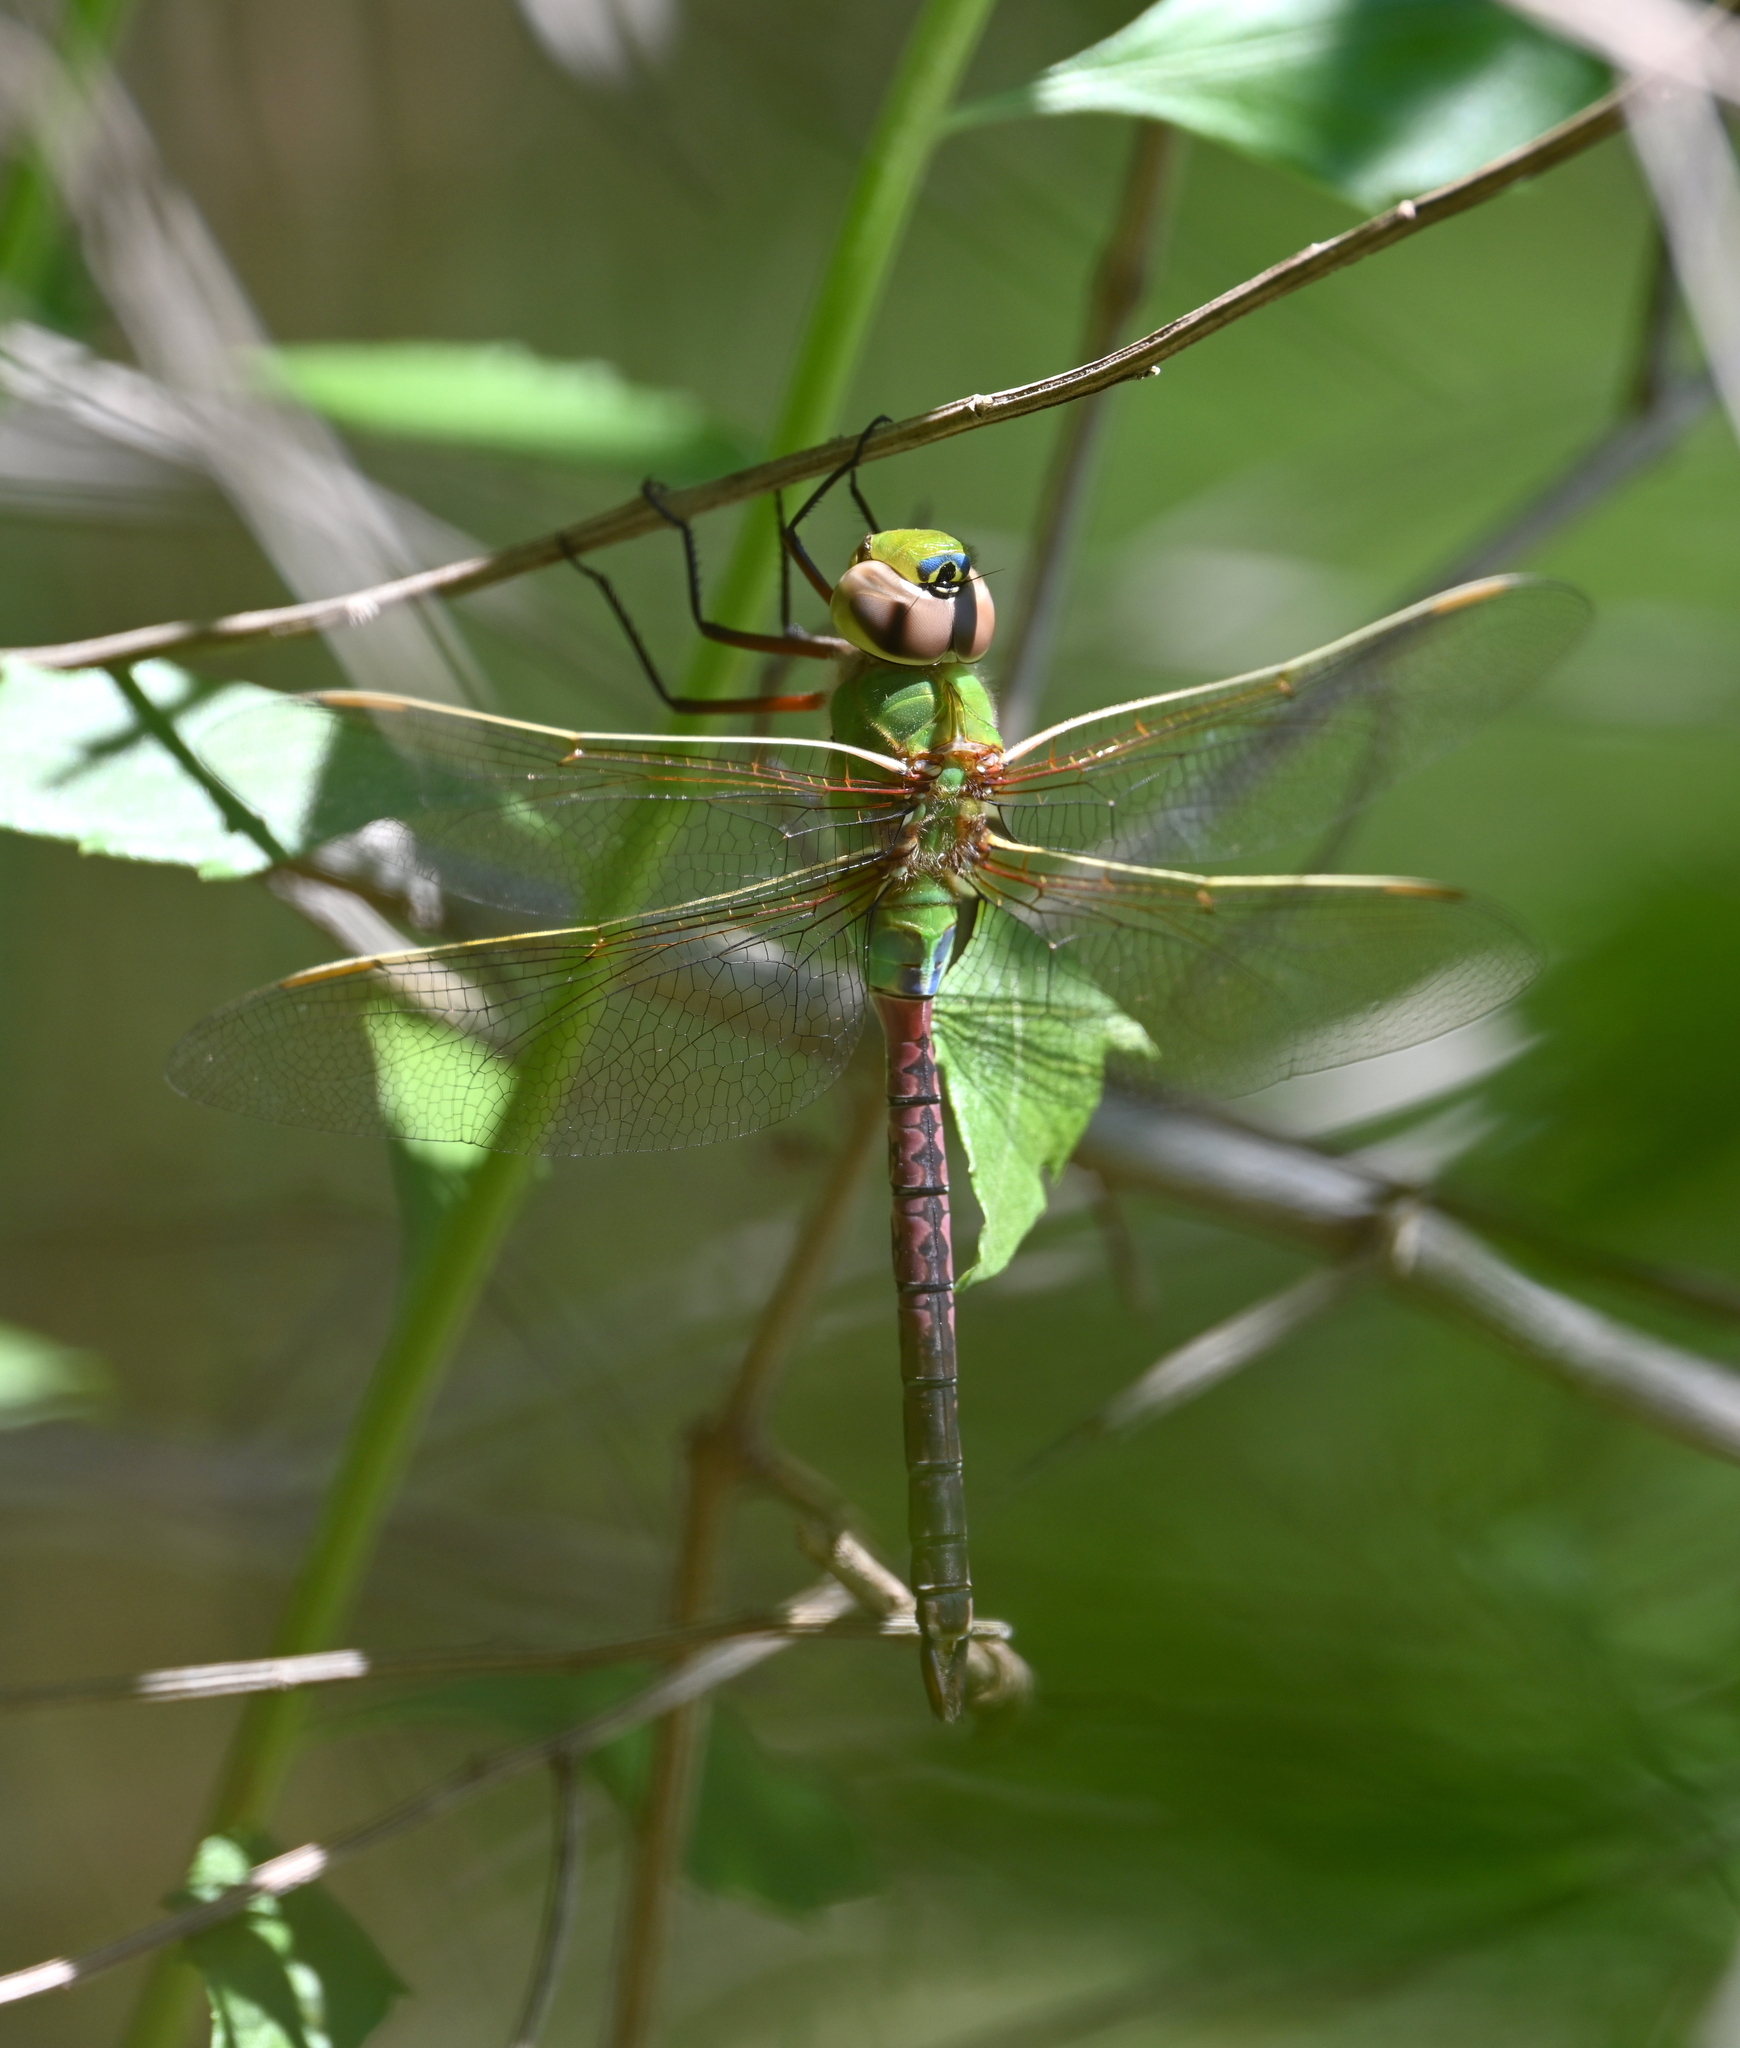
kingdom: Animalia
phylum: Arthropoda
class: Insecta
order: Odonata
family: Aeshnidae
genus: Anax
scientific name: Anax junius
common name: Common green darner
